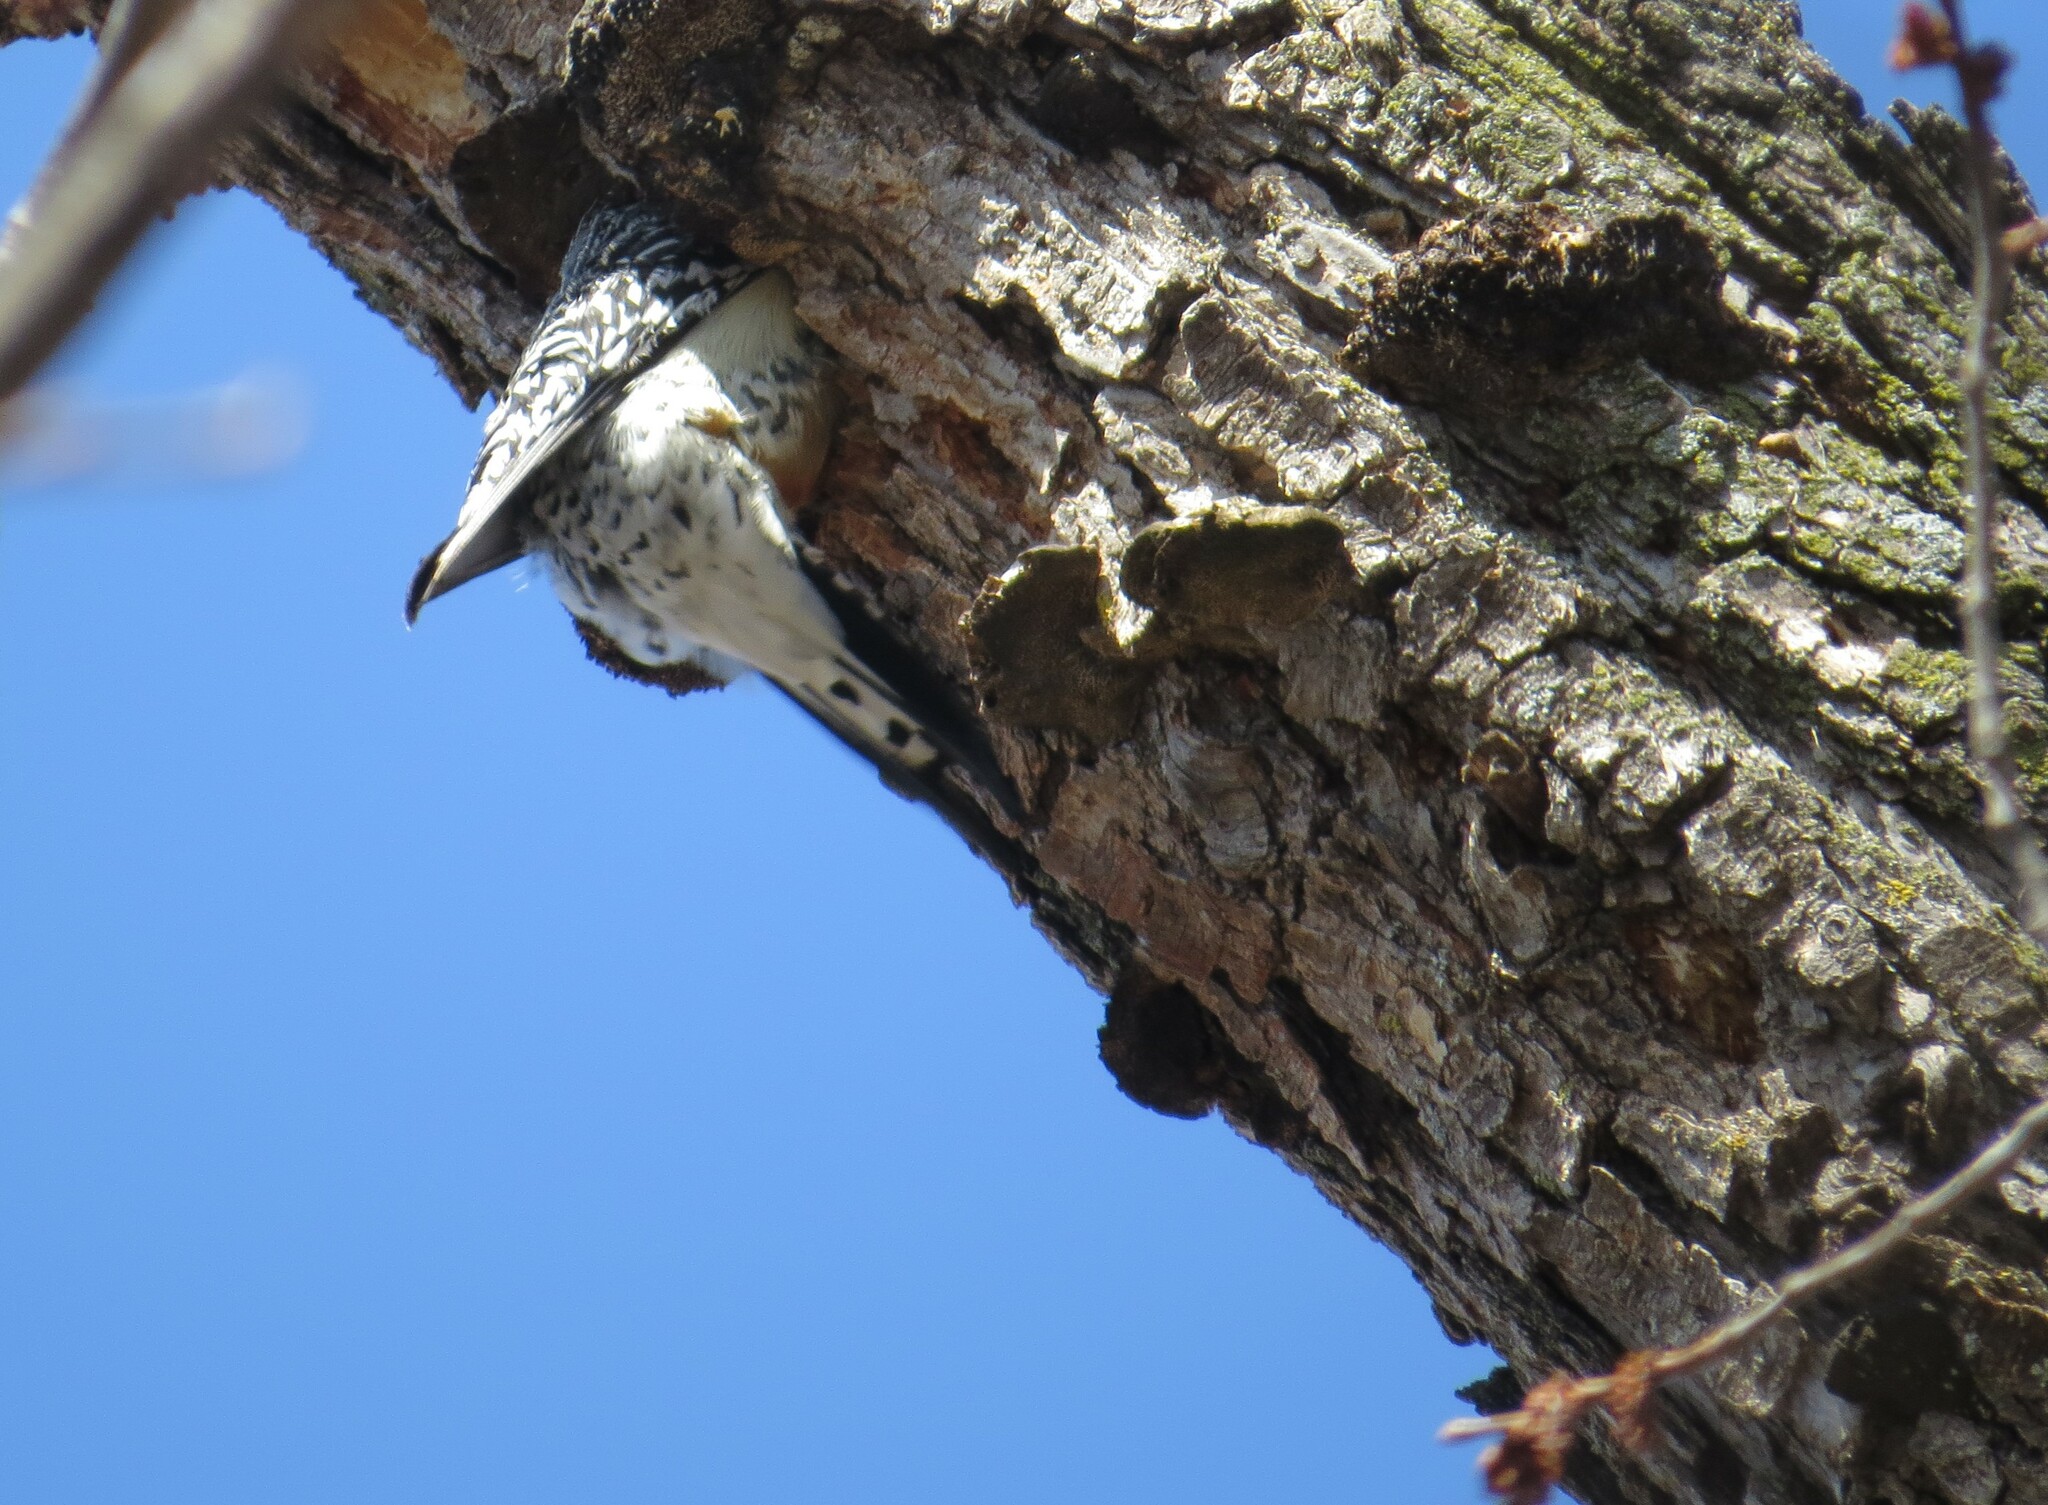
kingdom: Animalia
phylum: Chordata
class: Aves
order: Piciformes
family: Picidae
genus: Melanerpes
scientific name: Melanerpes carolinus
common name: Red-bellied woodpecker
